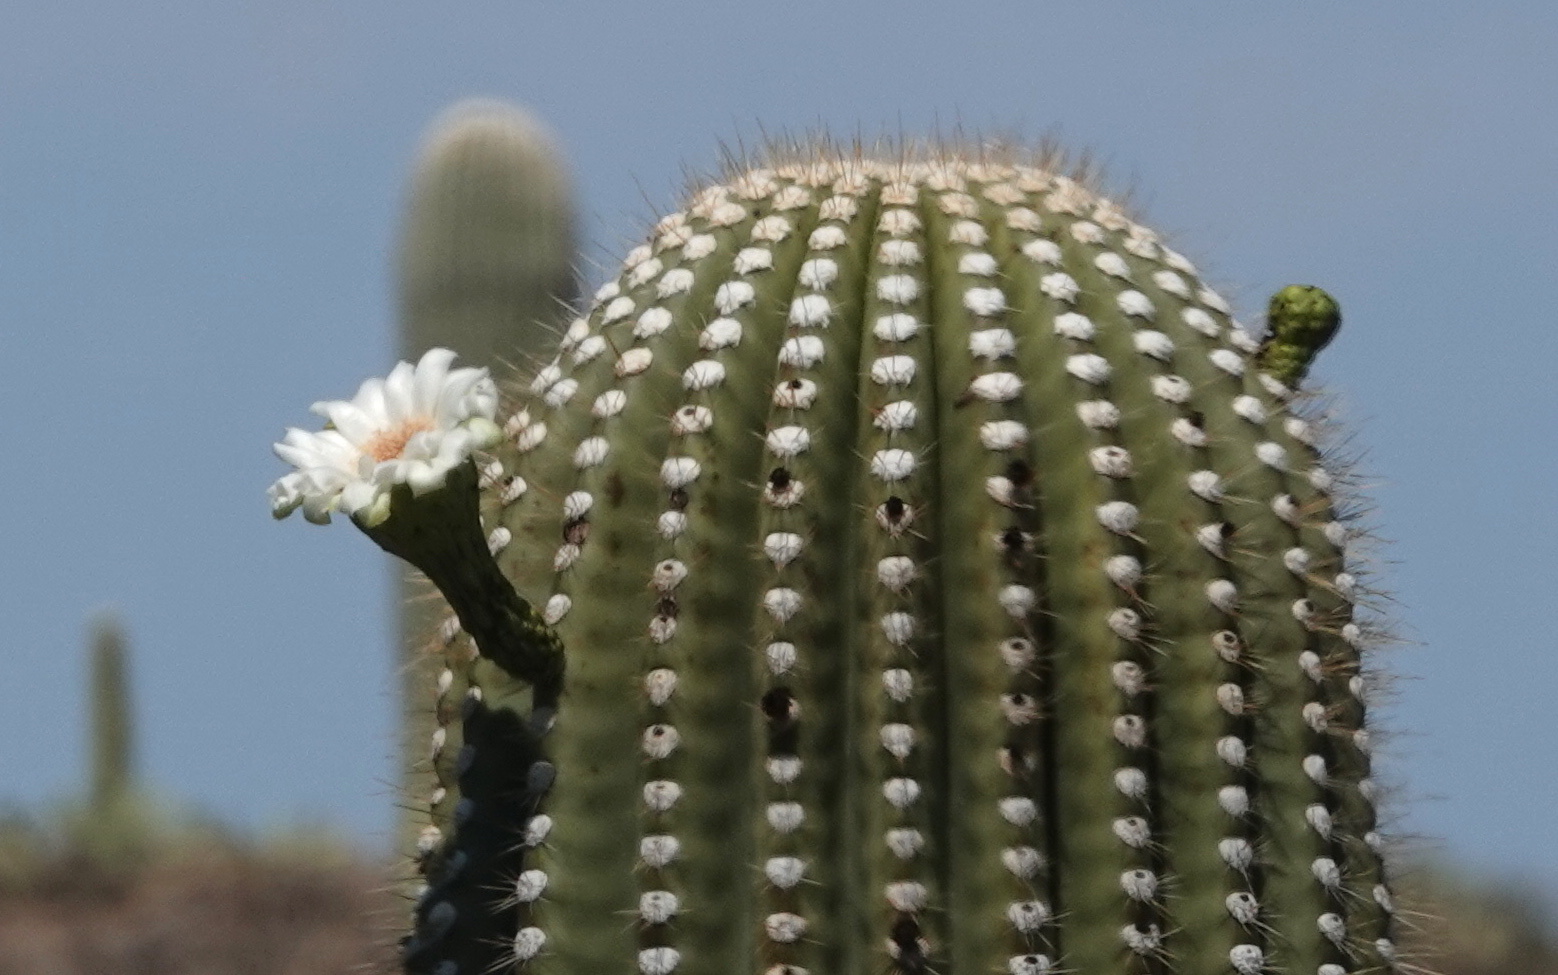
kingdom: Plantae
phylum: Tracheophyta
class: Magnoliopsida
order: Caryophyllales
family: Cactaceae
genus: Carnegiea
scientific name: Carnegiea gigantea
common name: Saguaro
